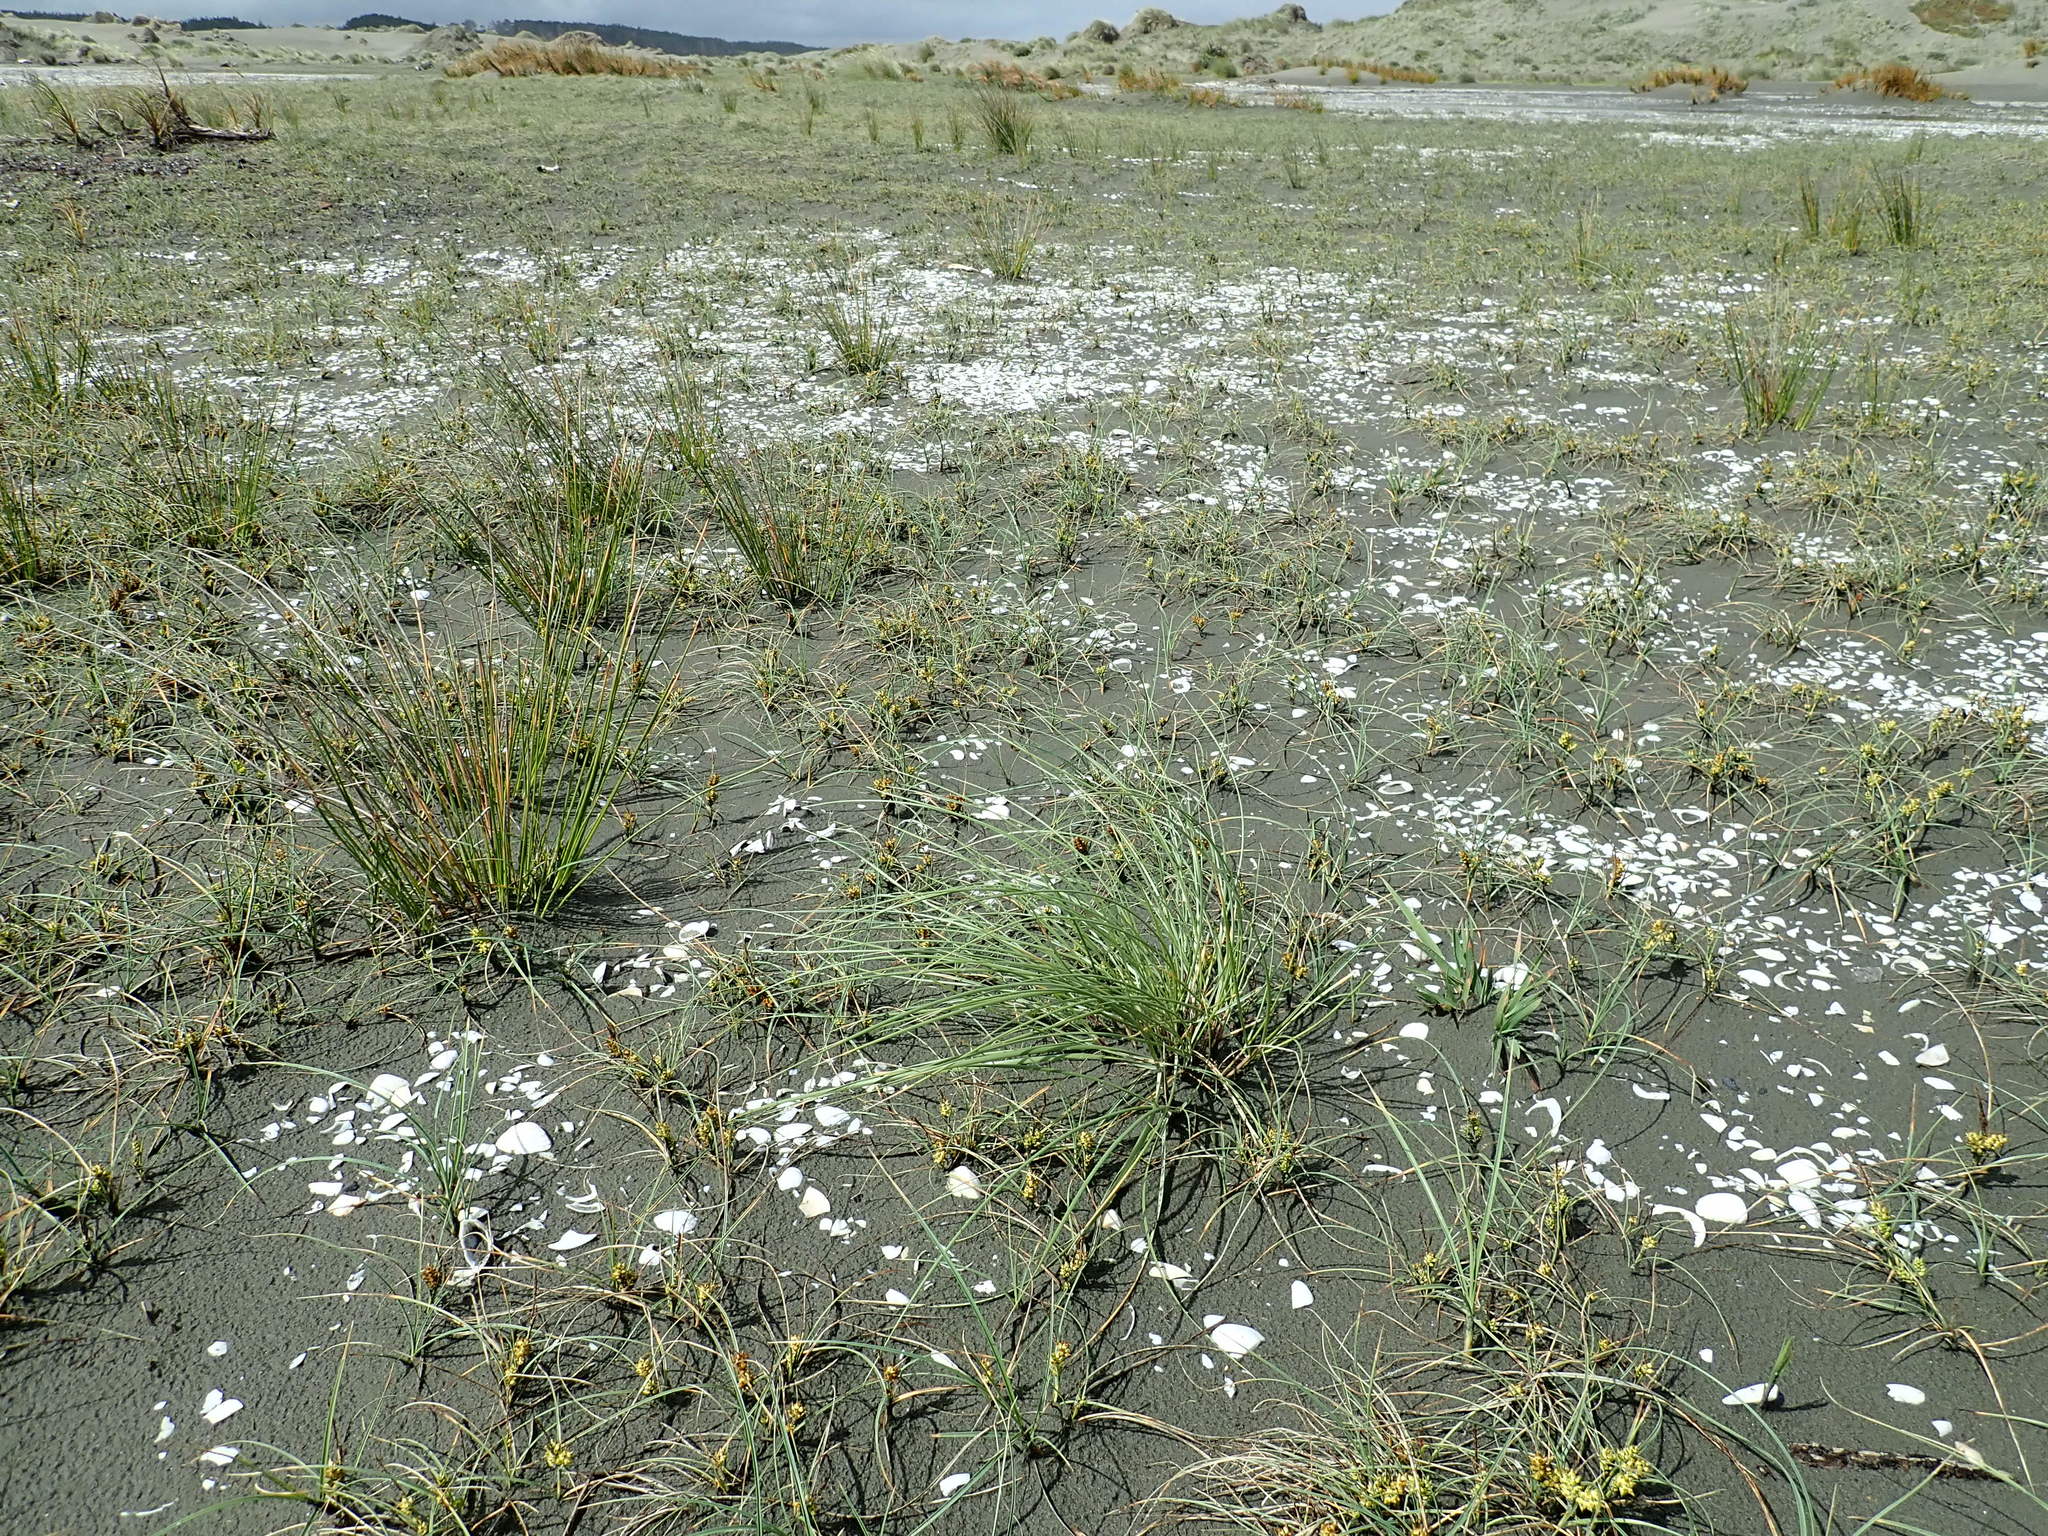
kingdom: Plantae
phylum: Tracheophyta
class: Liliopsida
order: Poales
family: Poaceae
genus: Calamagrostis
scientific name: Calamagrostis arenaria
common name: European beachgrass
